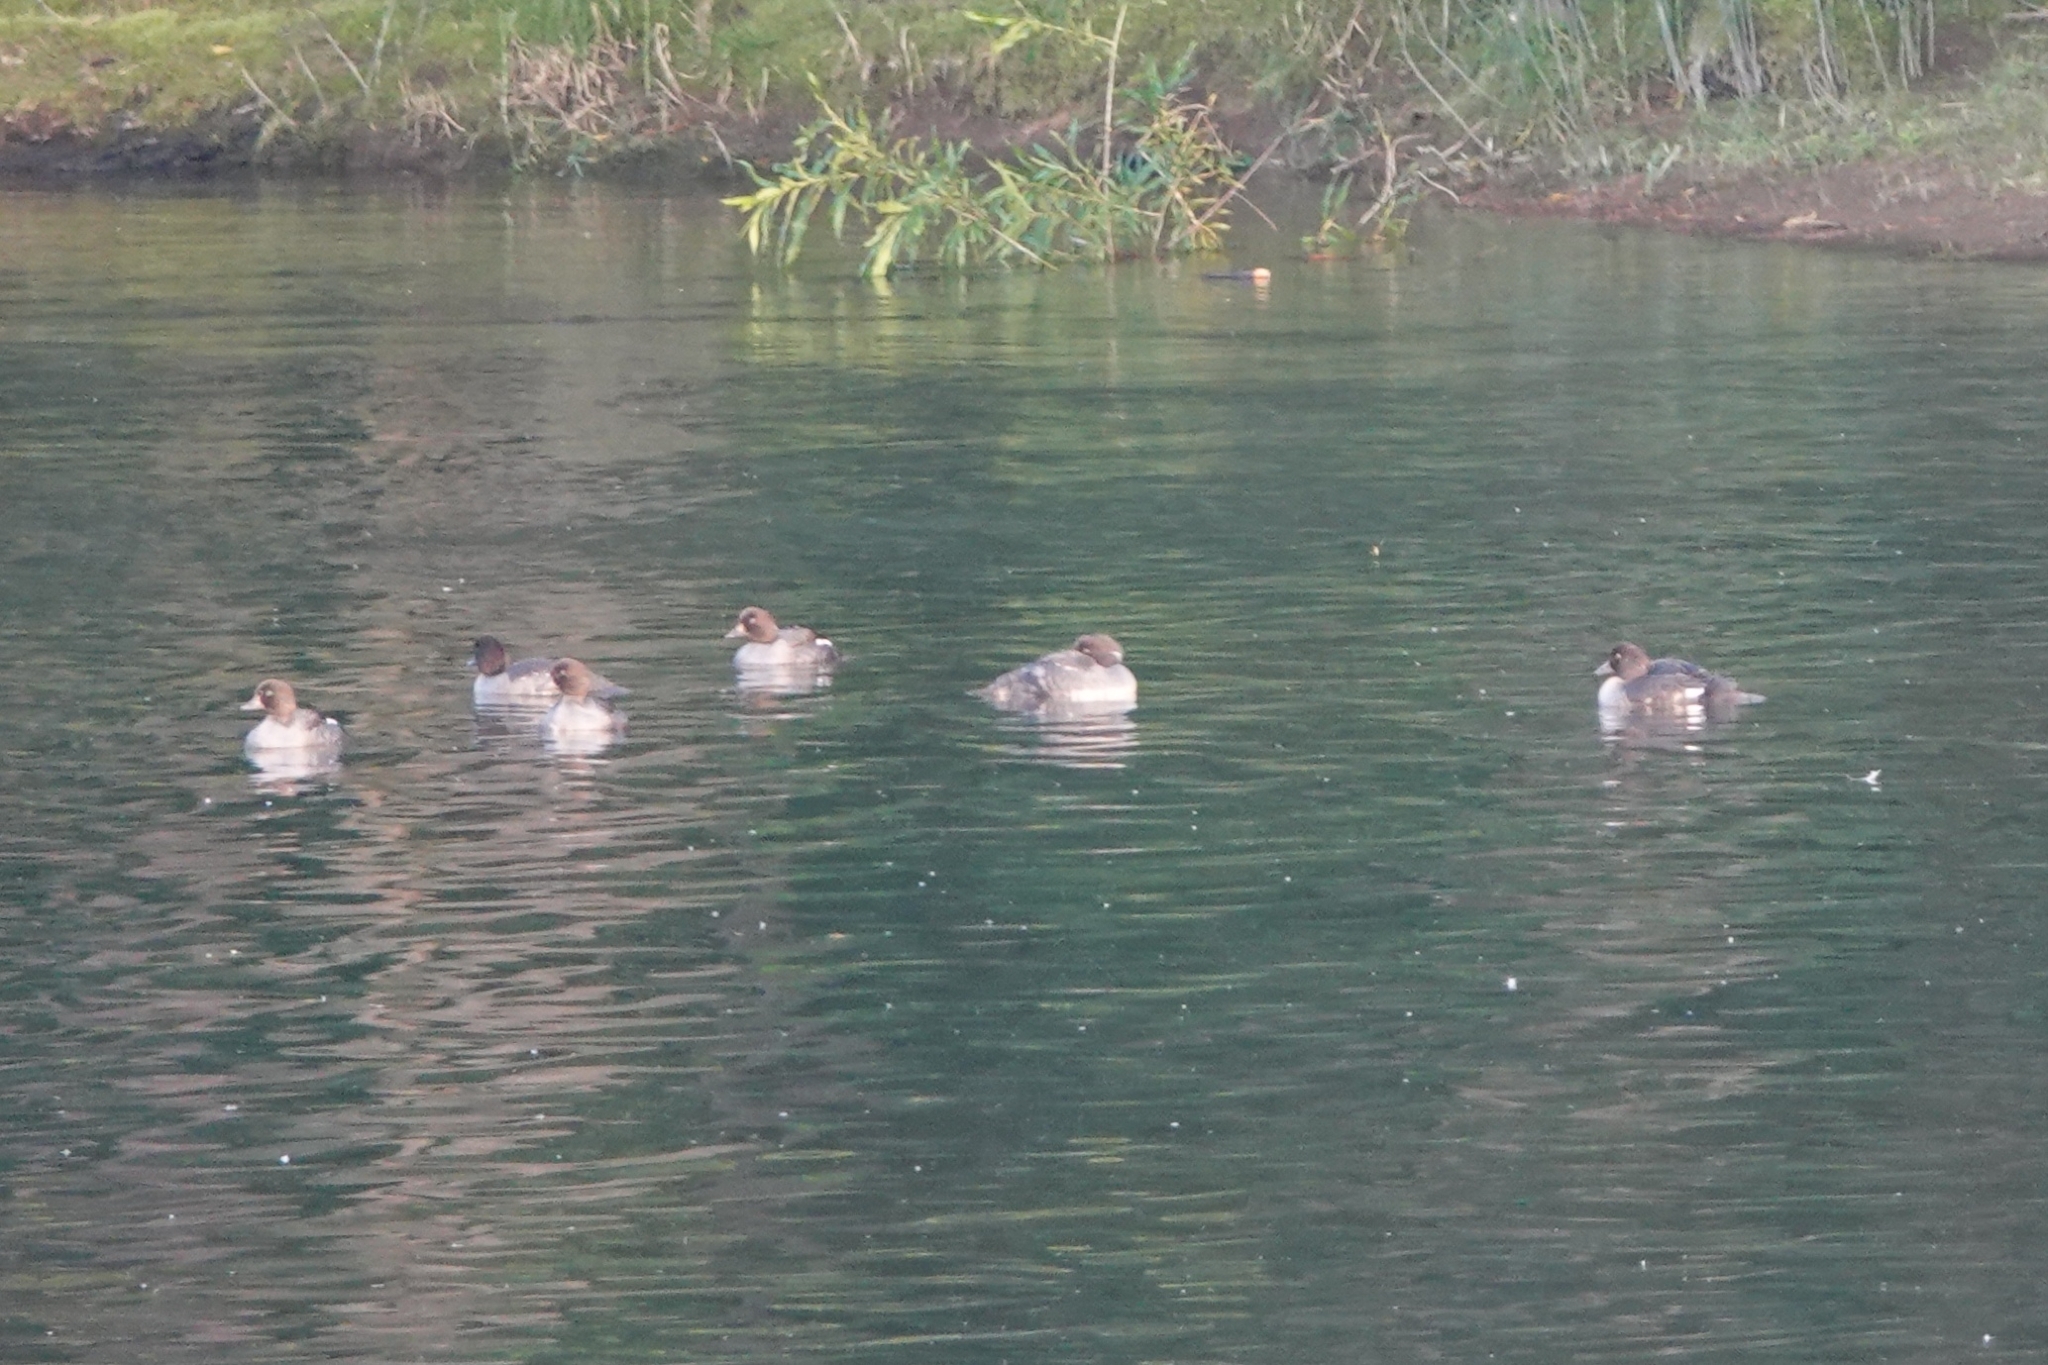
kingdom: Animalia
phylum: Chordata
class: Aves
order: Anseriformes
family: Anatidae
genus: Bucephala
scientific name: Bucephala clangula
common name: Common goldeneye
